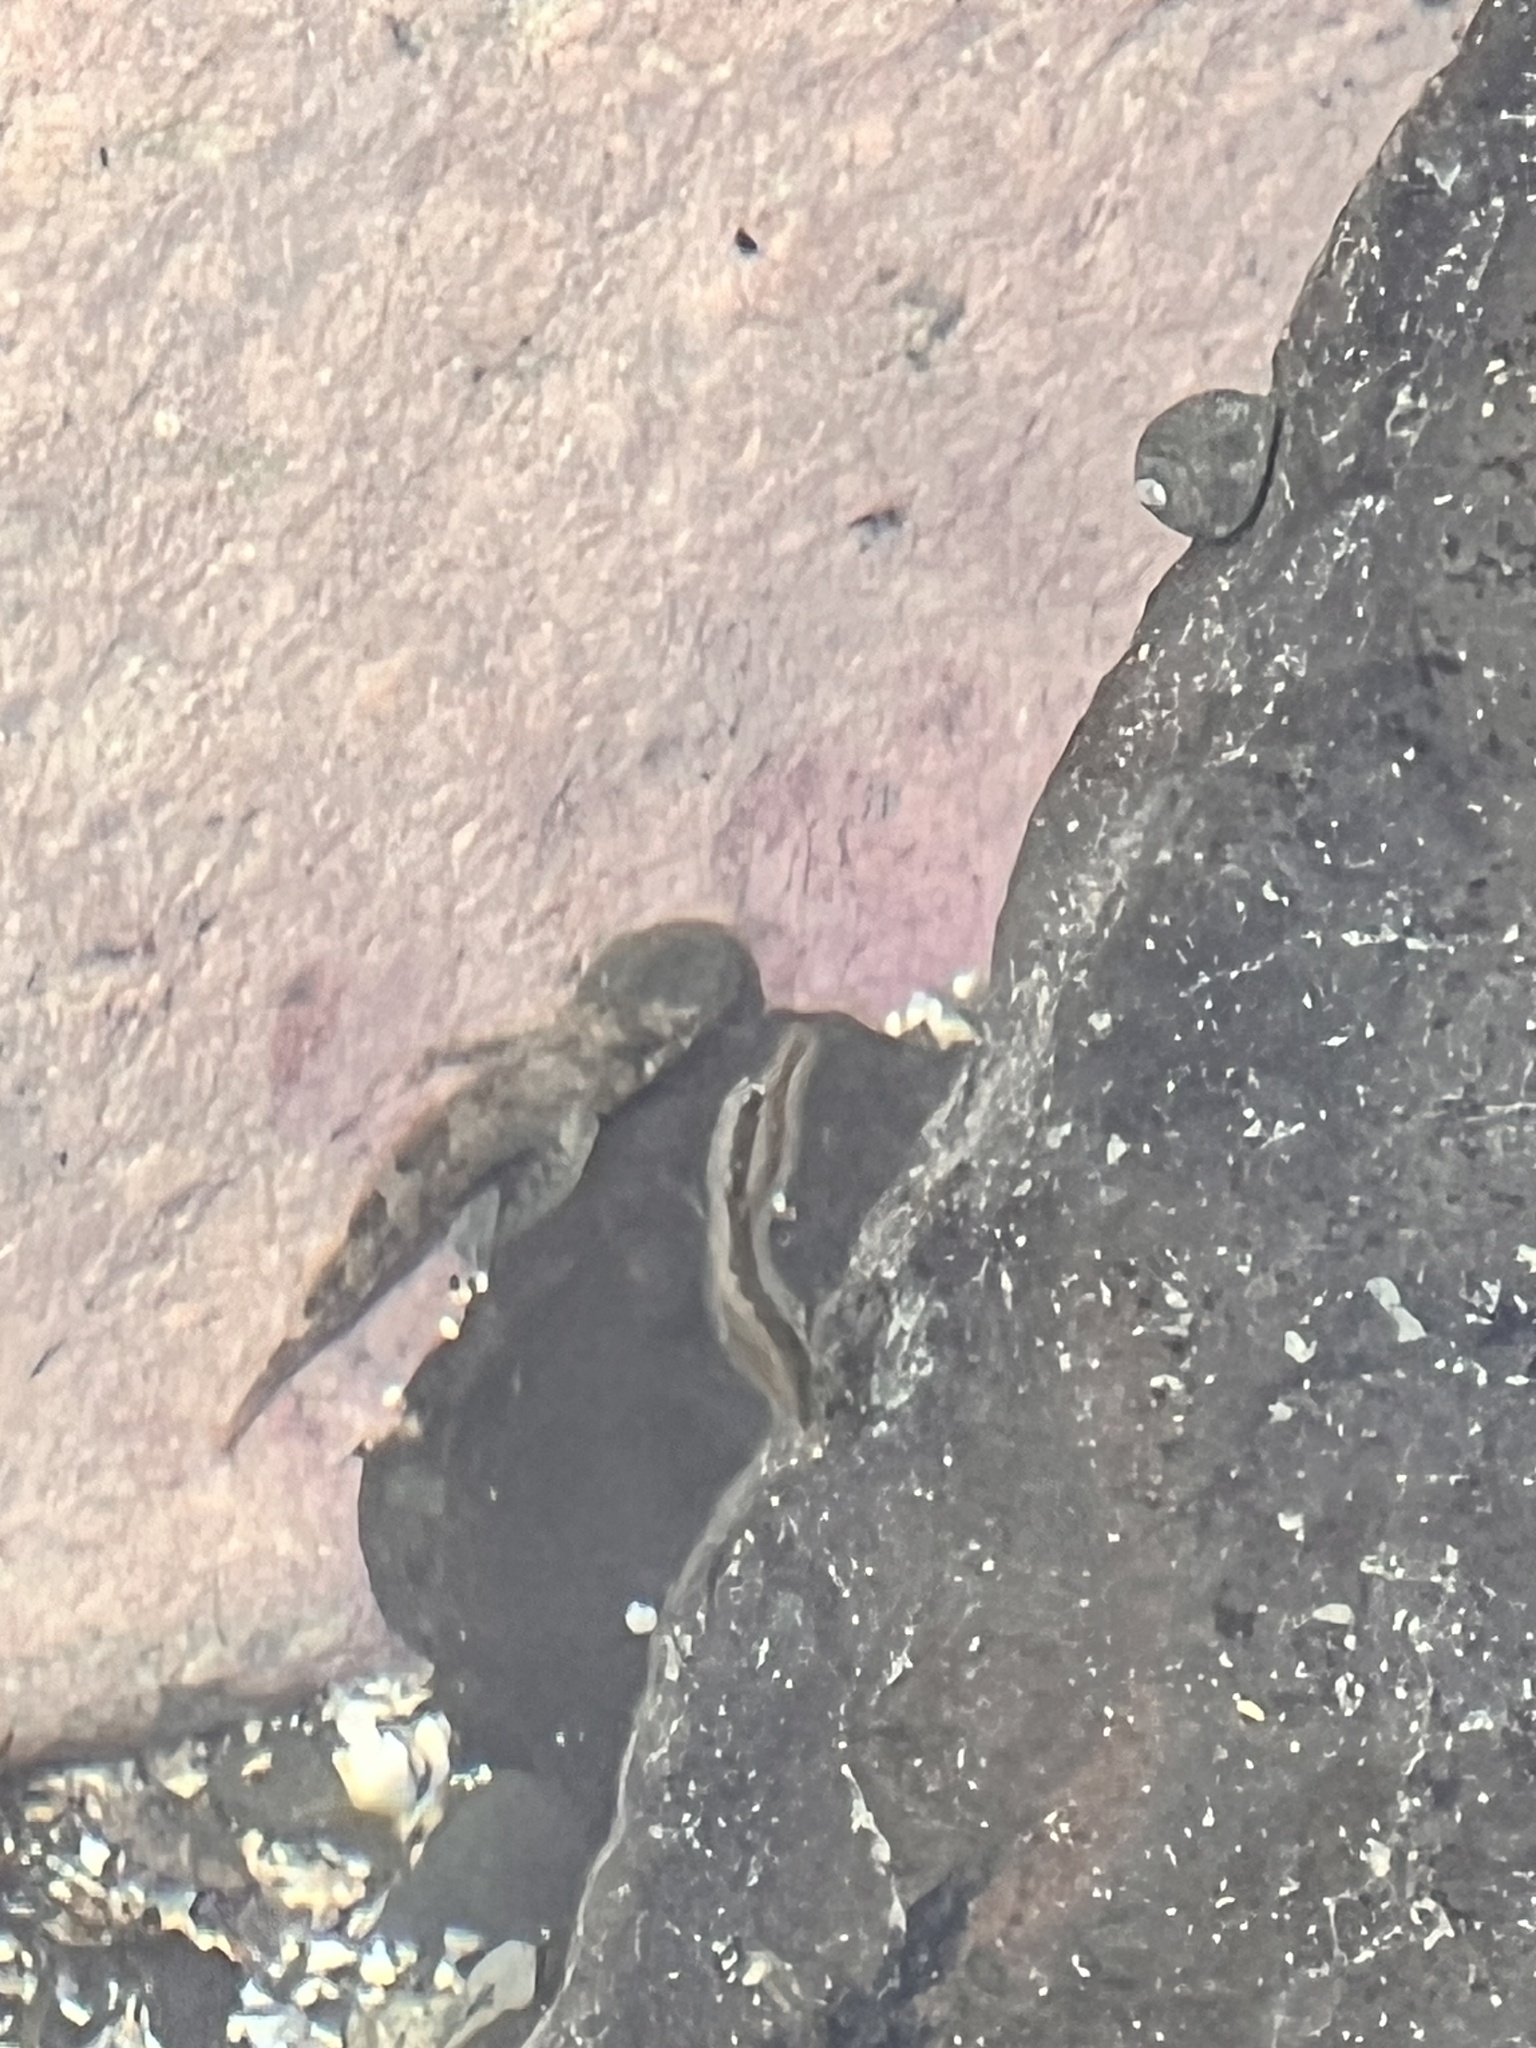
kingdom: Animalia
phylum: Chordata
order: Perciformes
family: Tripterygiidae
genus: Forsterygion
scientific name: Forsterygion lapillum
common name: Common triplefin
